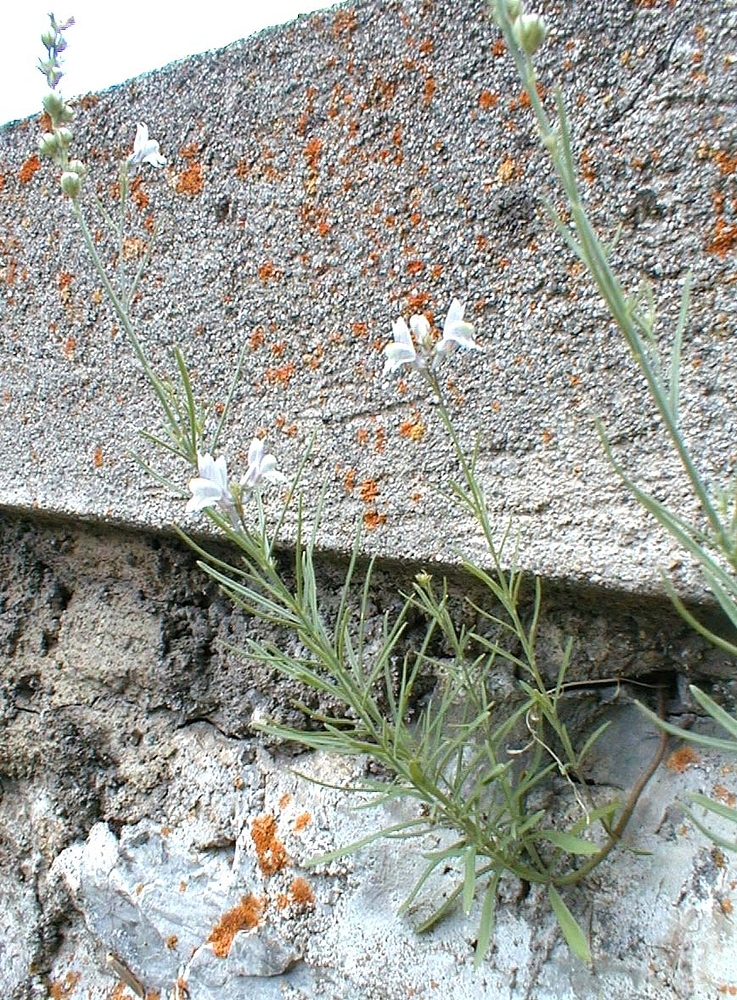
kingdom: Plantae
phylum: Tracheophyta
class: Magnoliopsida
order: Lamiales
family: Plantaginaceae
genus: Linaria
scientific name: Linaria repens
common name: Pale toadflax
